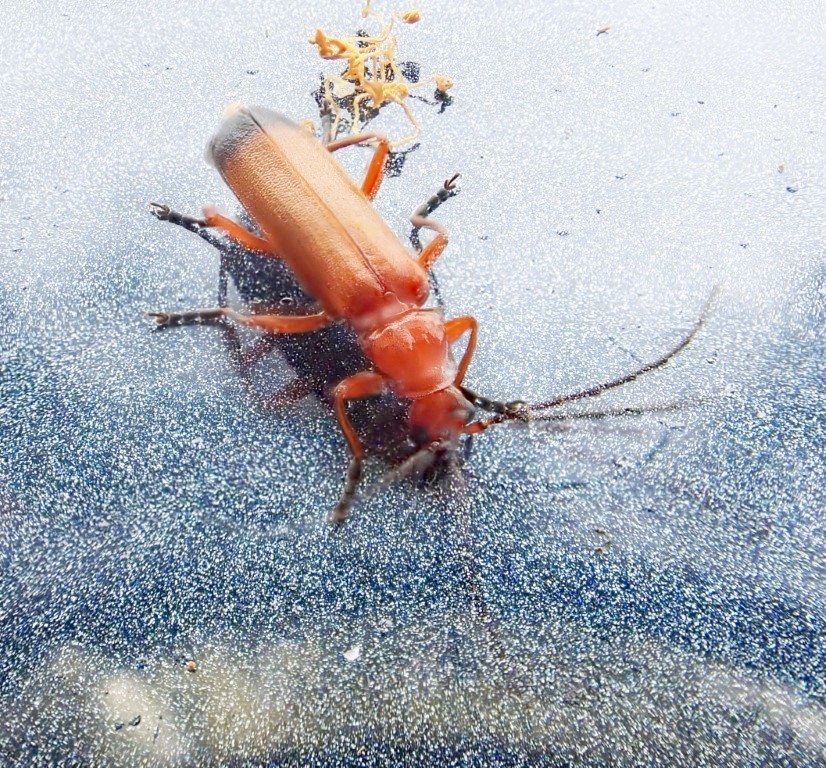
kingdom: Animalia
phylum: Arthropoda
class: Insecta
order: Coleoptera
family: Cantharidae
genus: Rhagonycha
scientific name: Rhagonycha fulva
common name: Common red soldier beetle
